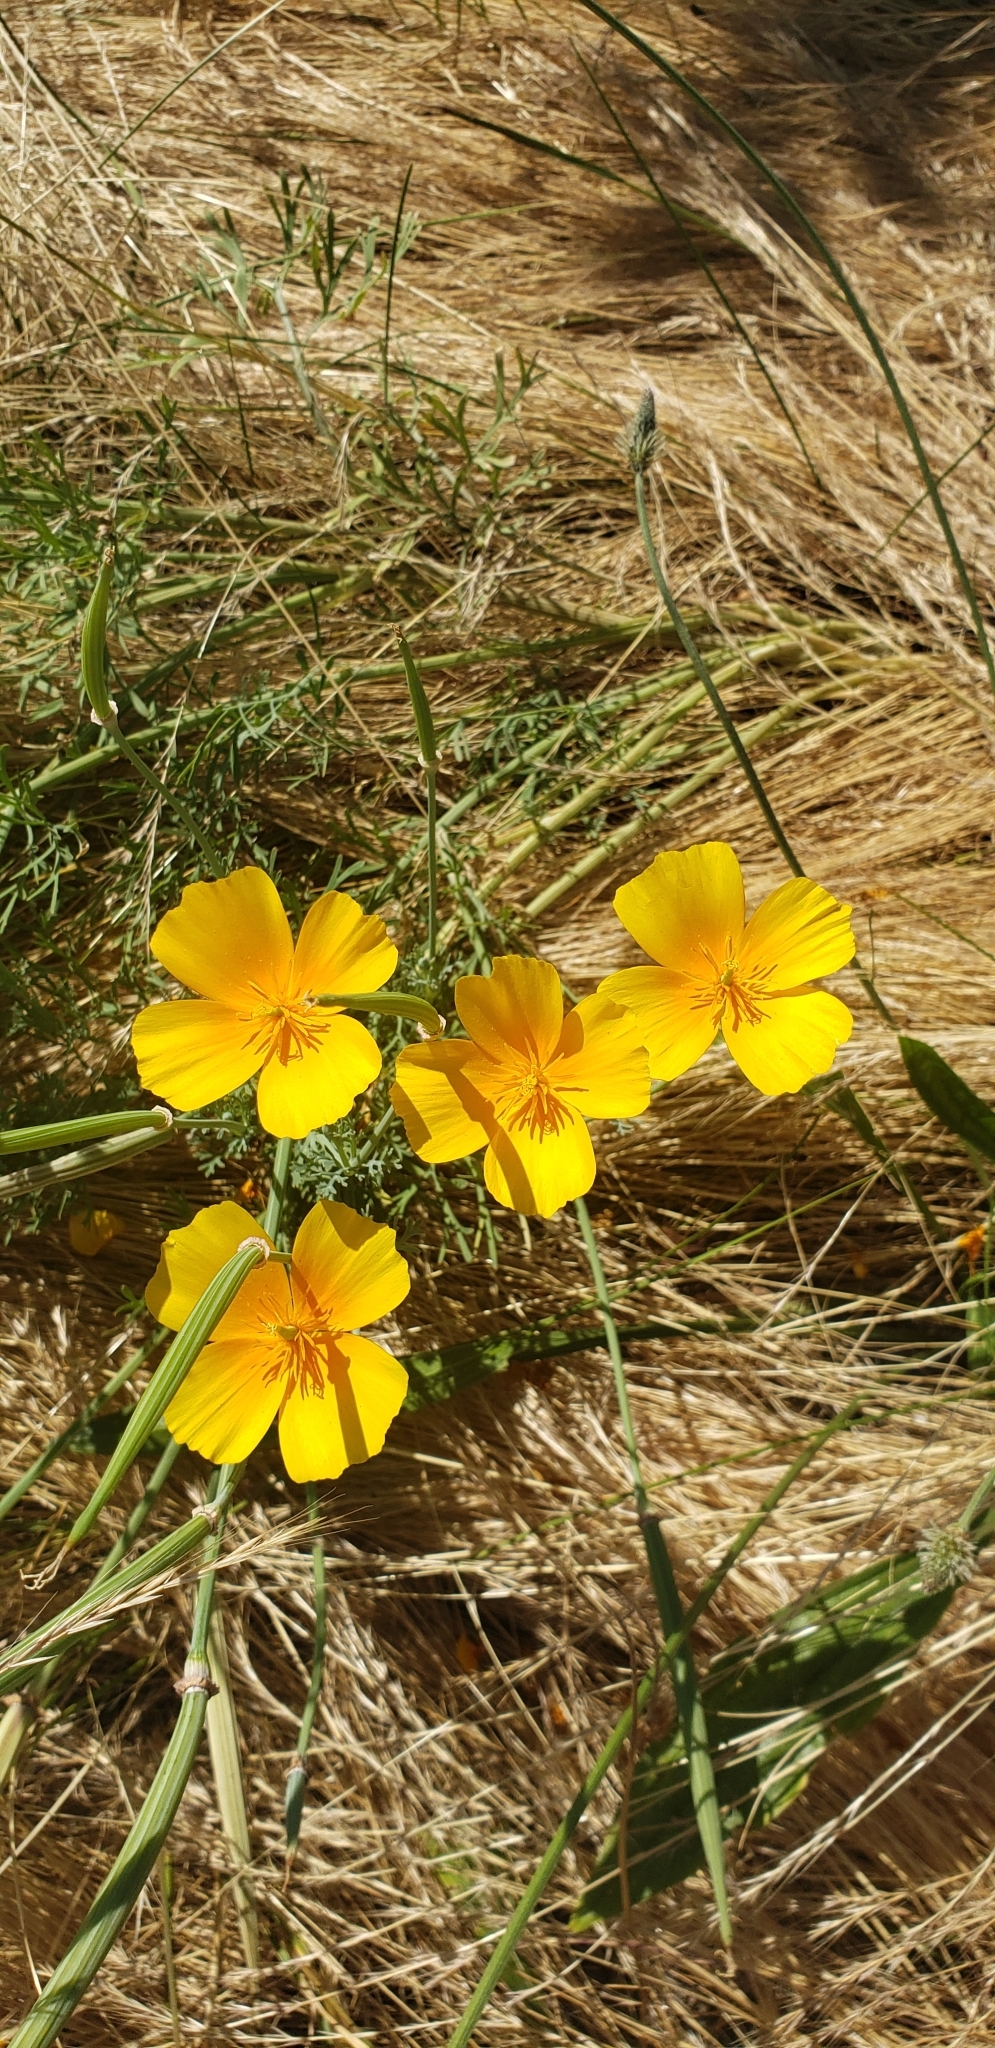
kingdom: Plantae
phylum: Tracheophyta
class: Magnoliopsida
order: Ranunculales
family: Papaveraceae
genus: Eschscholzia
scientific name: Eschscholzia californica
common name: California poppy
